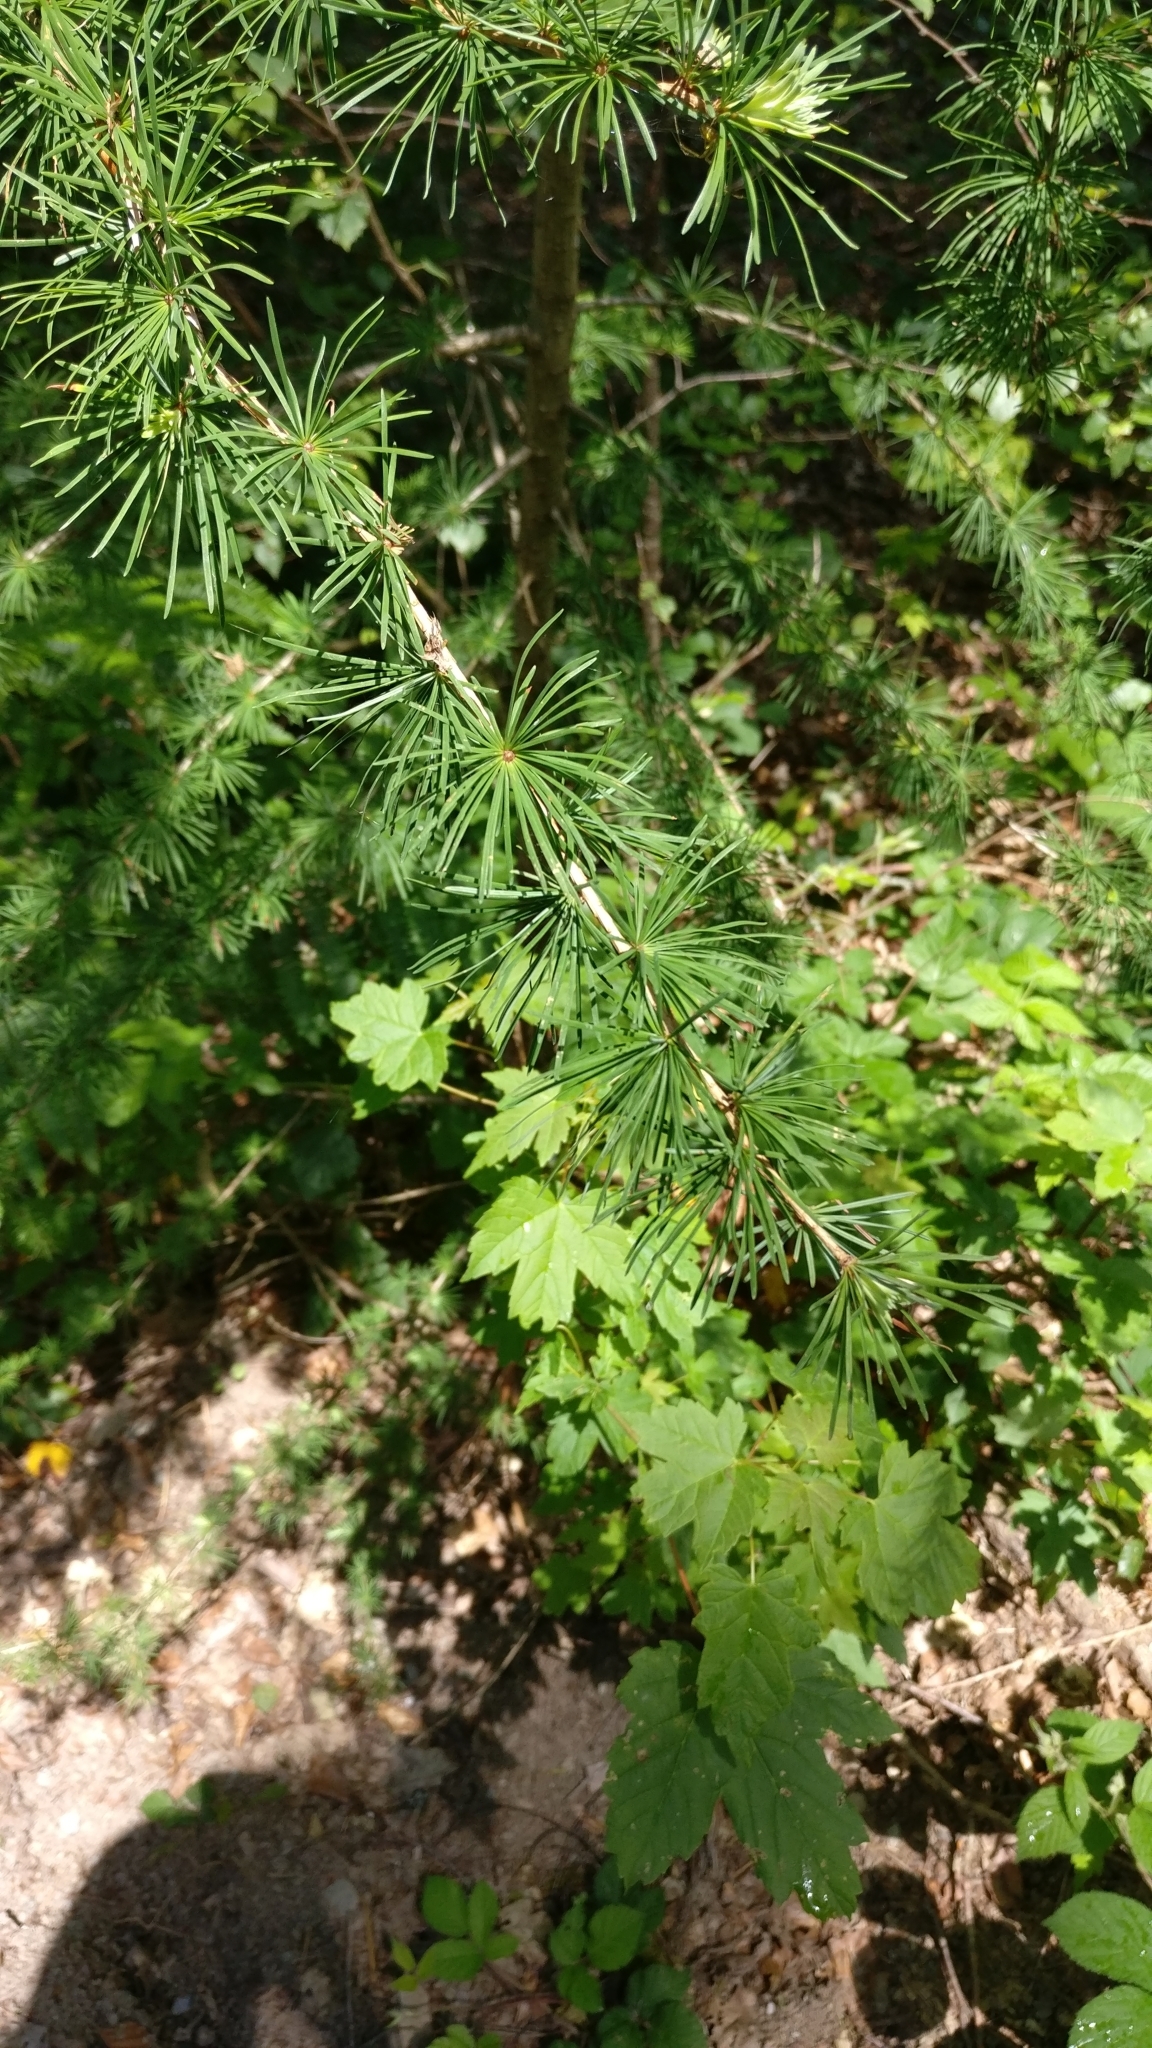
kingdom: Plantae
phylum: Tracheophyta
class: Pinopsida
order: Pinales
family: Pinaceae
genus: Larix
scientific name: Larix decidua
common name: European larch
